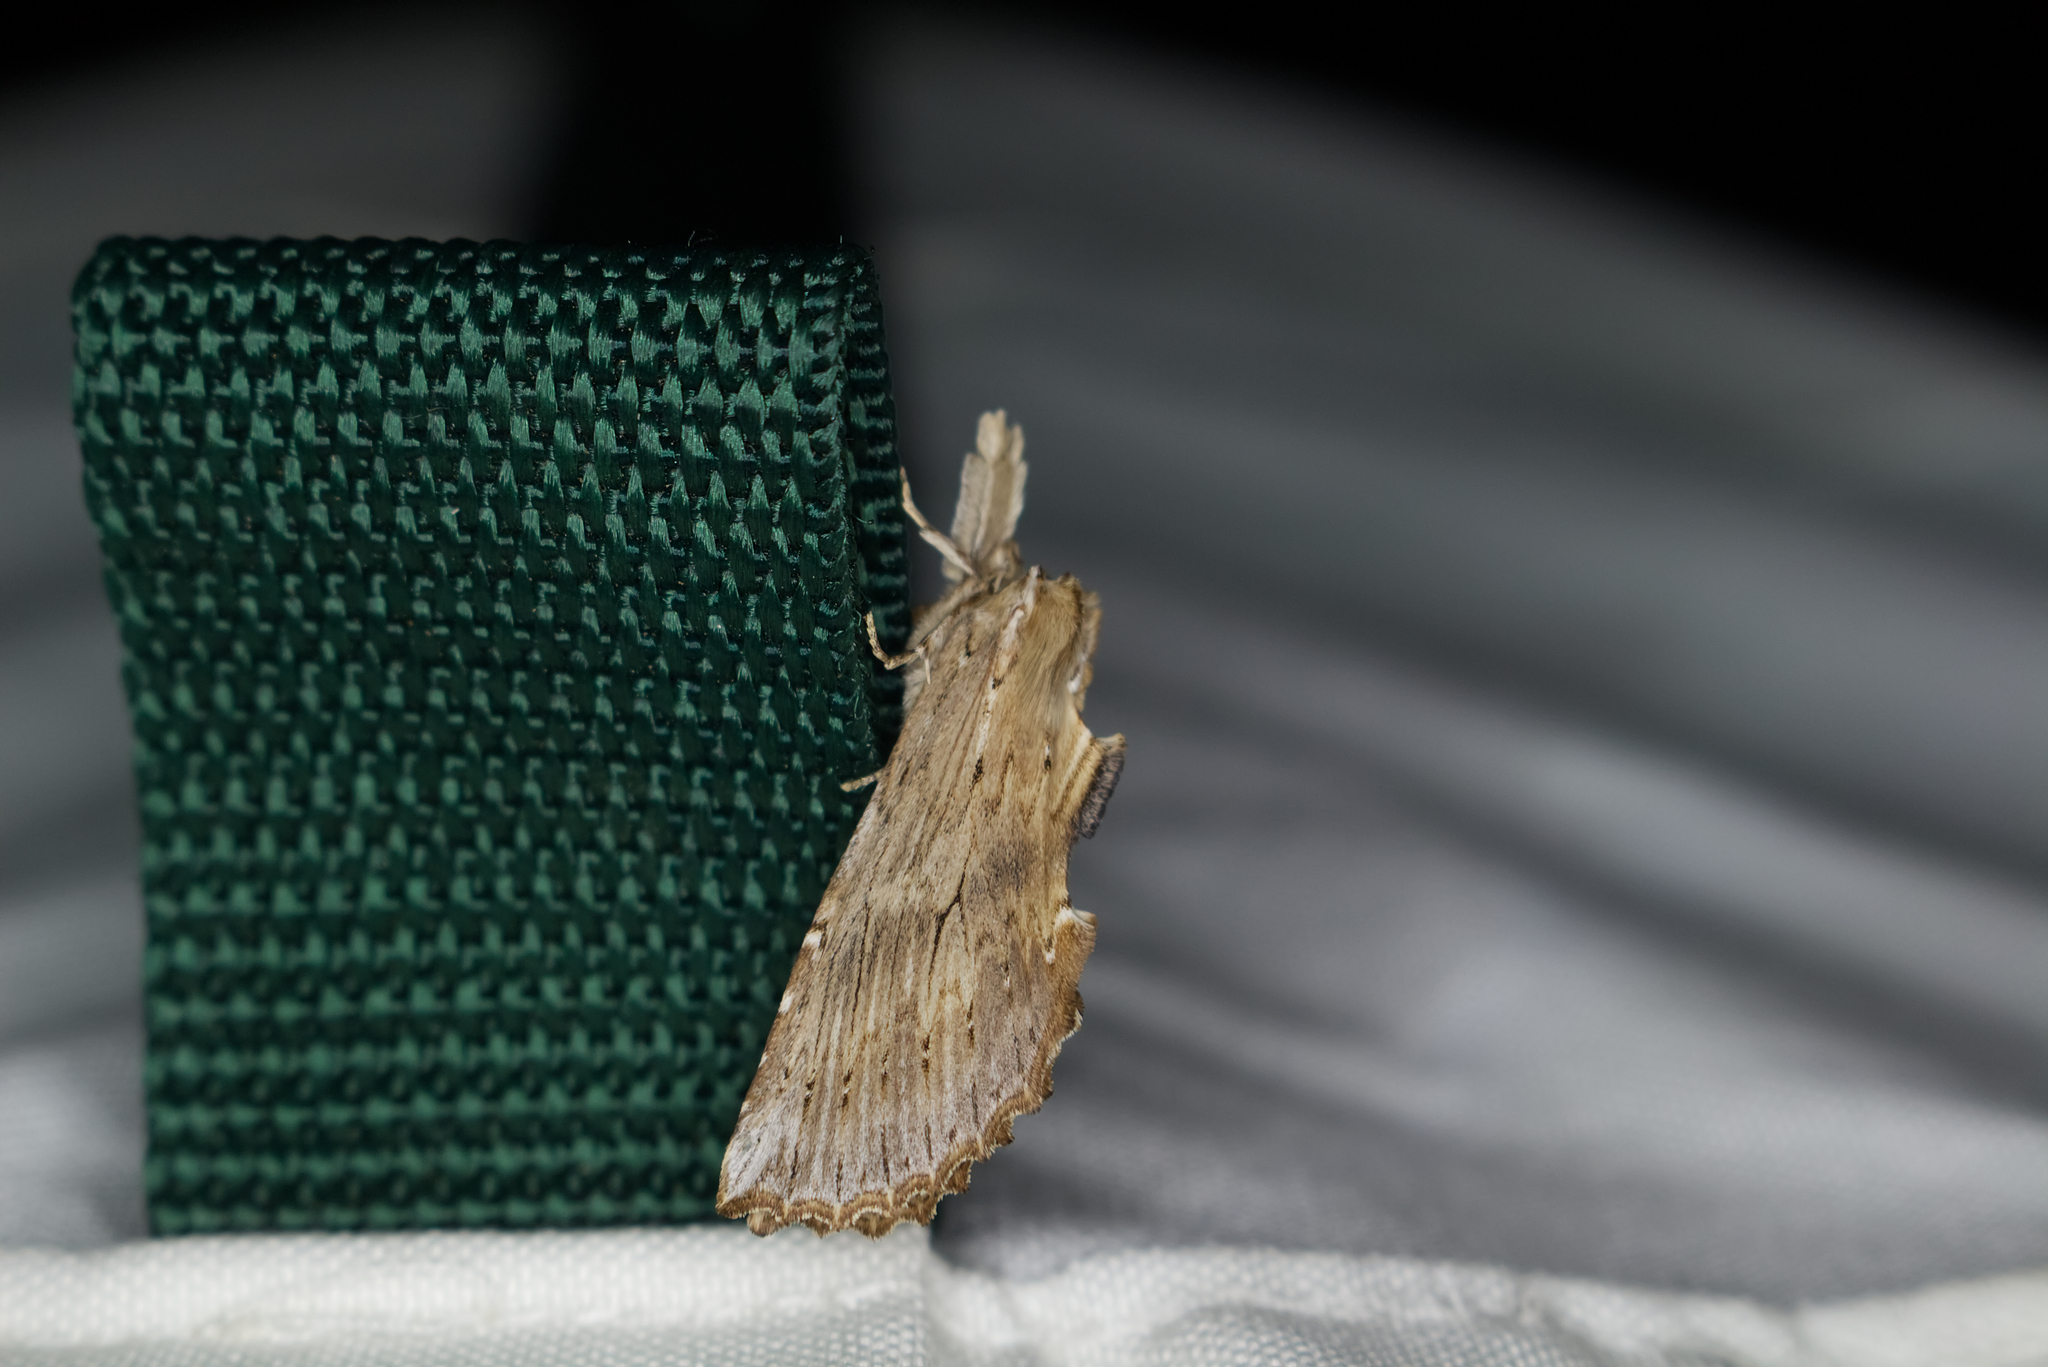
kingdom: Animalia
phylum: Arthropoda
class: Insecta
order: Lepidoptera
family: Notodontidae
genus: Pterostoma
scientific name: Pterostoma palpina
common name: Pale prominent
